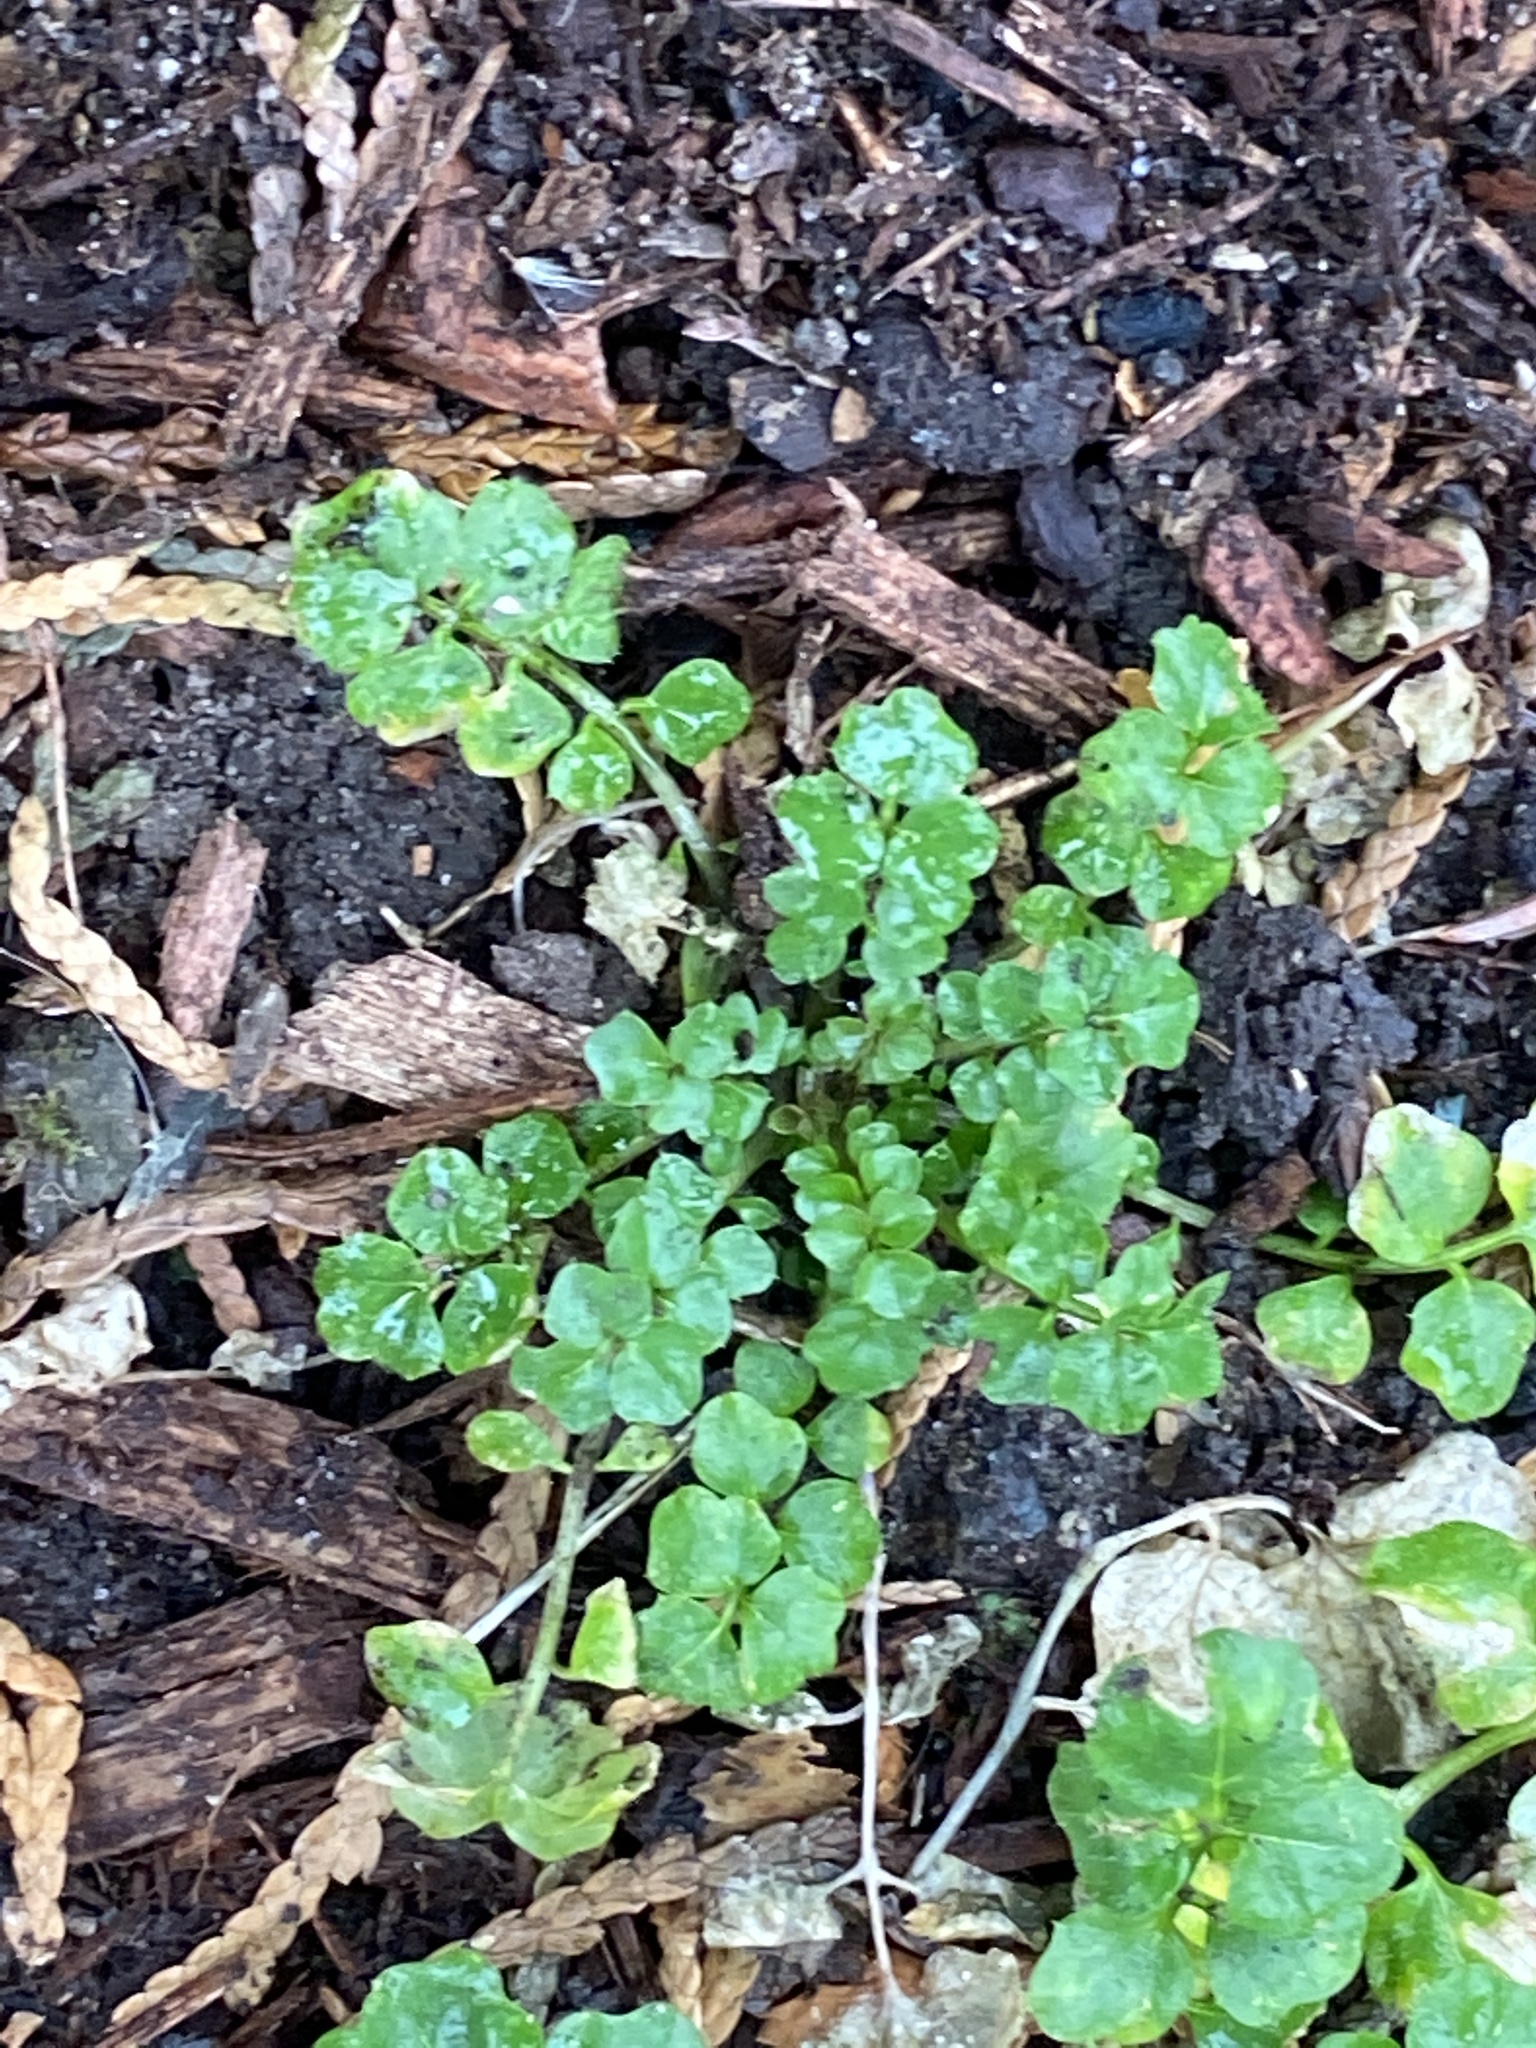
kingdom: Plantae
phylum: Tracheophyta
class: Magnoliopsida
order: Brassicales
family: Brassicaceae
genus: Cardamine
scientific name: Cardamine hirsuta
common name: Hairy bittercress
